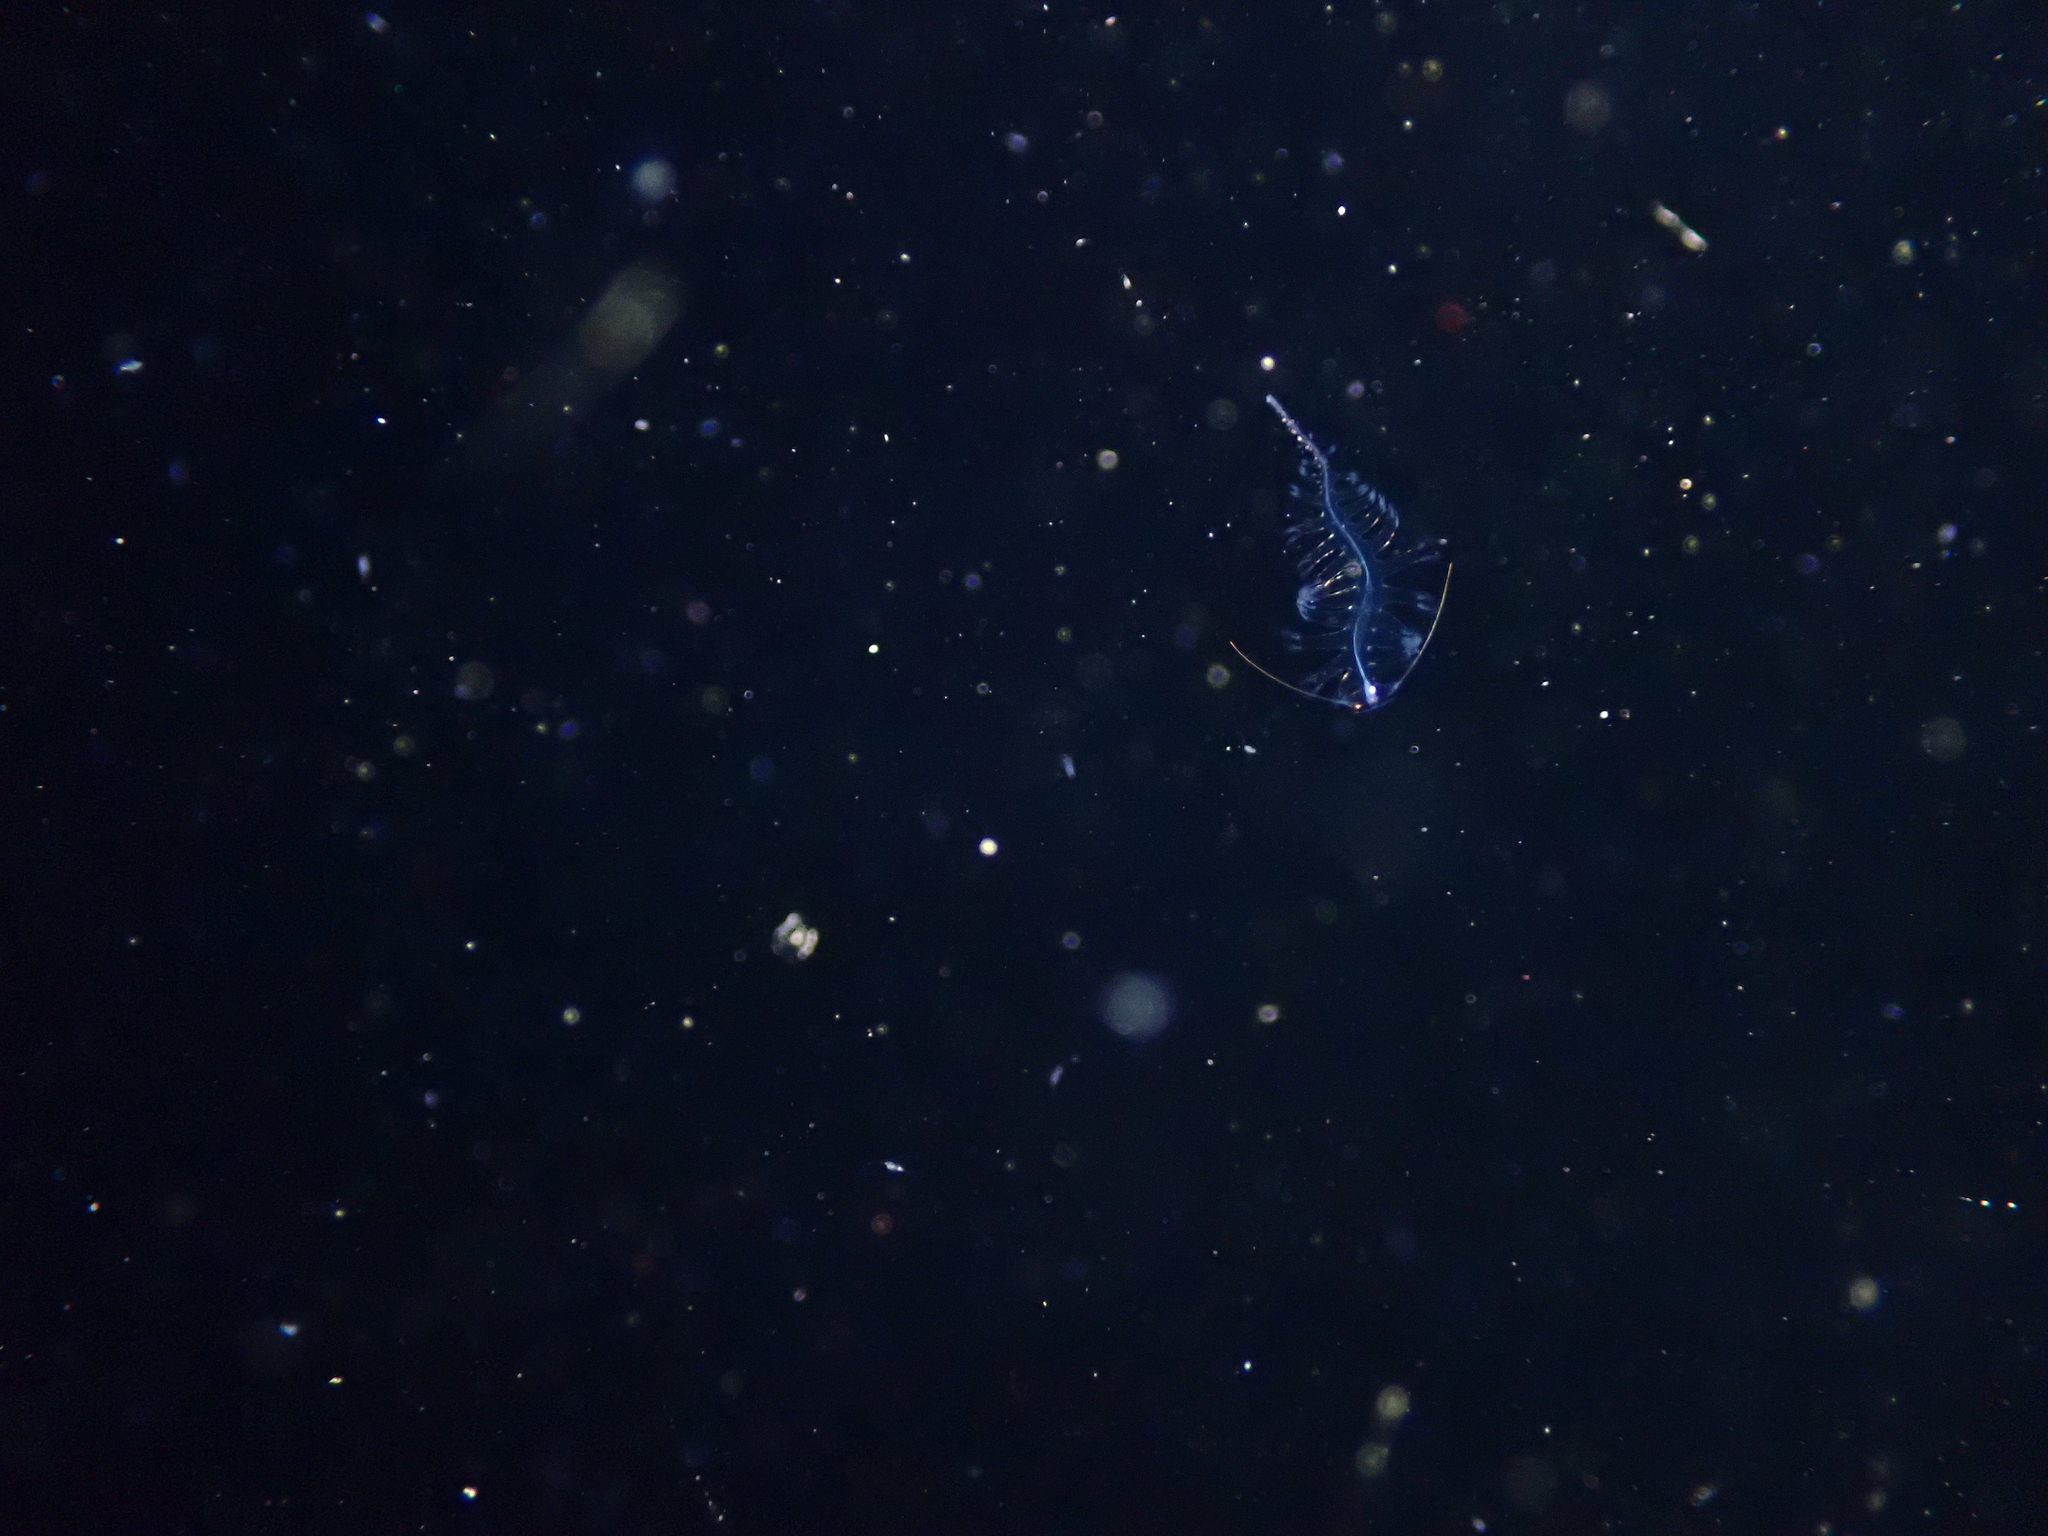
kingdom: Animalia
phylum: Annelida
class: Polychaeta
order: Phyllodocida
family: Tomopteridae
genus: Tomopteris
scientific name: Tomopteris helgolandica
